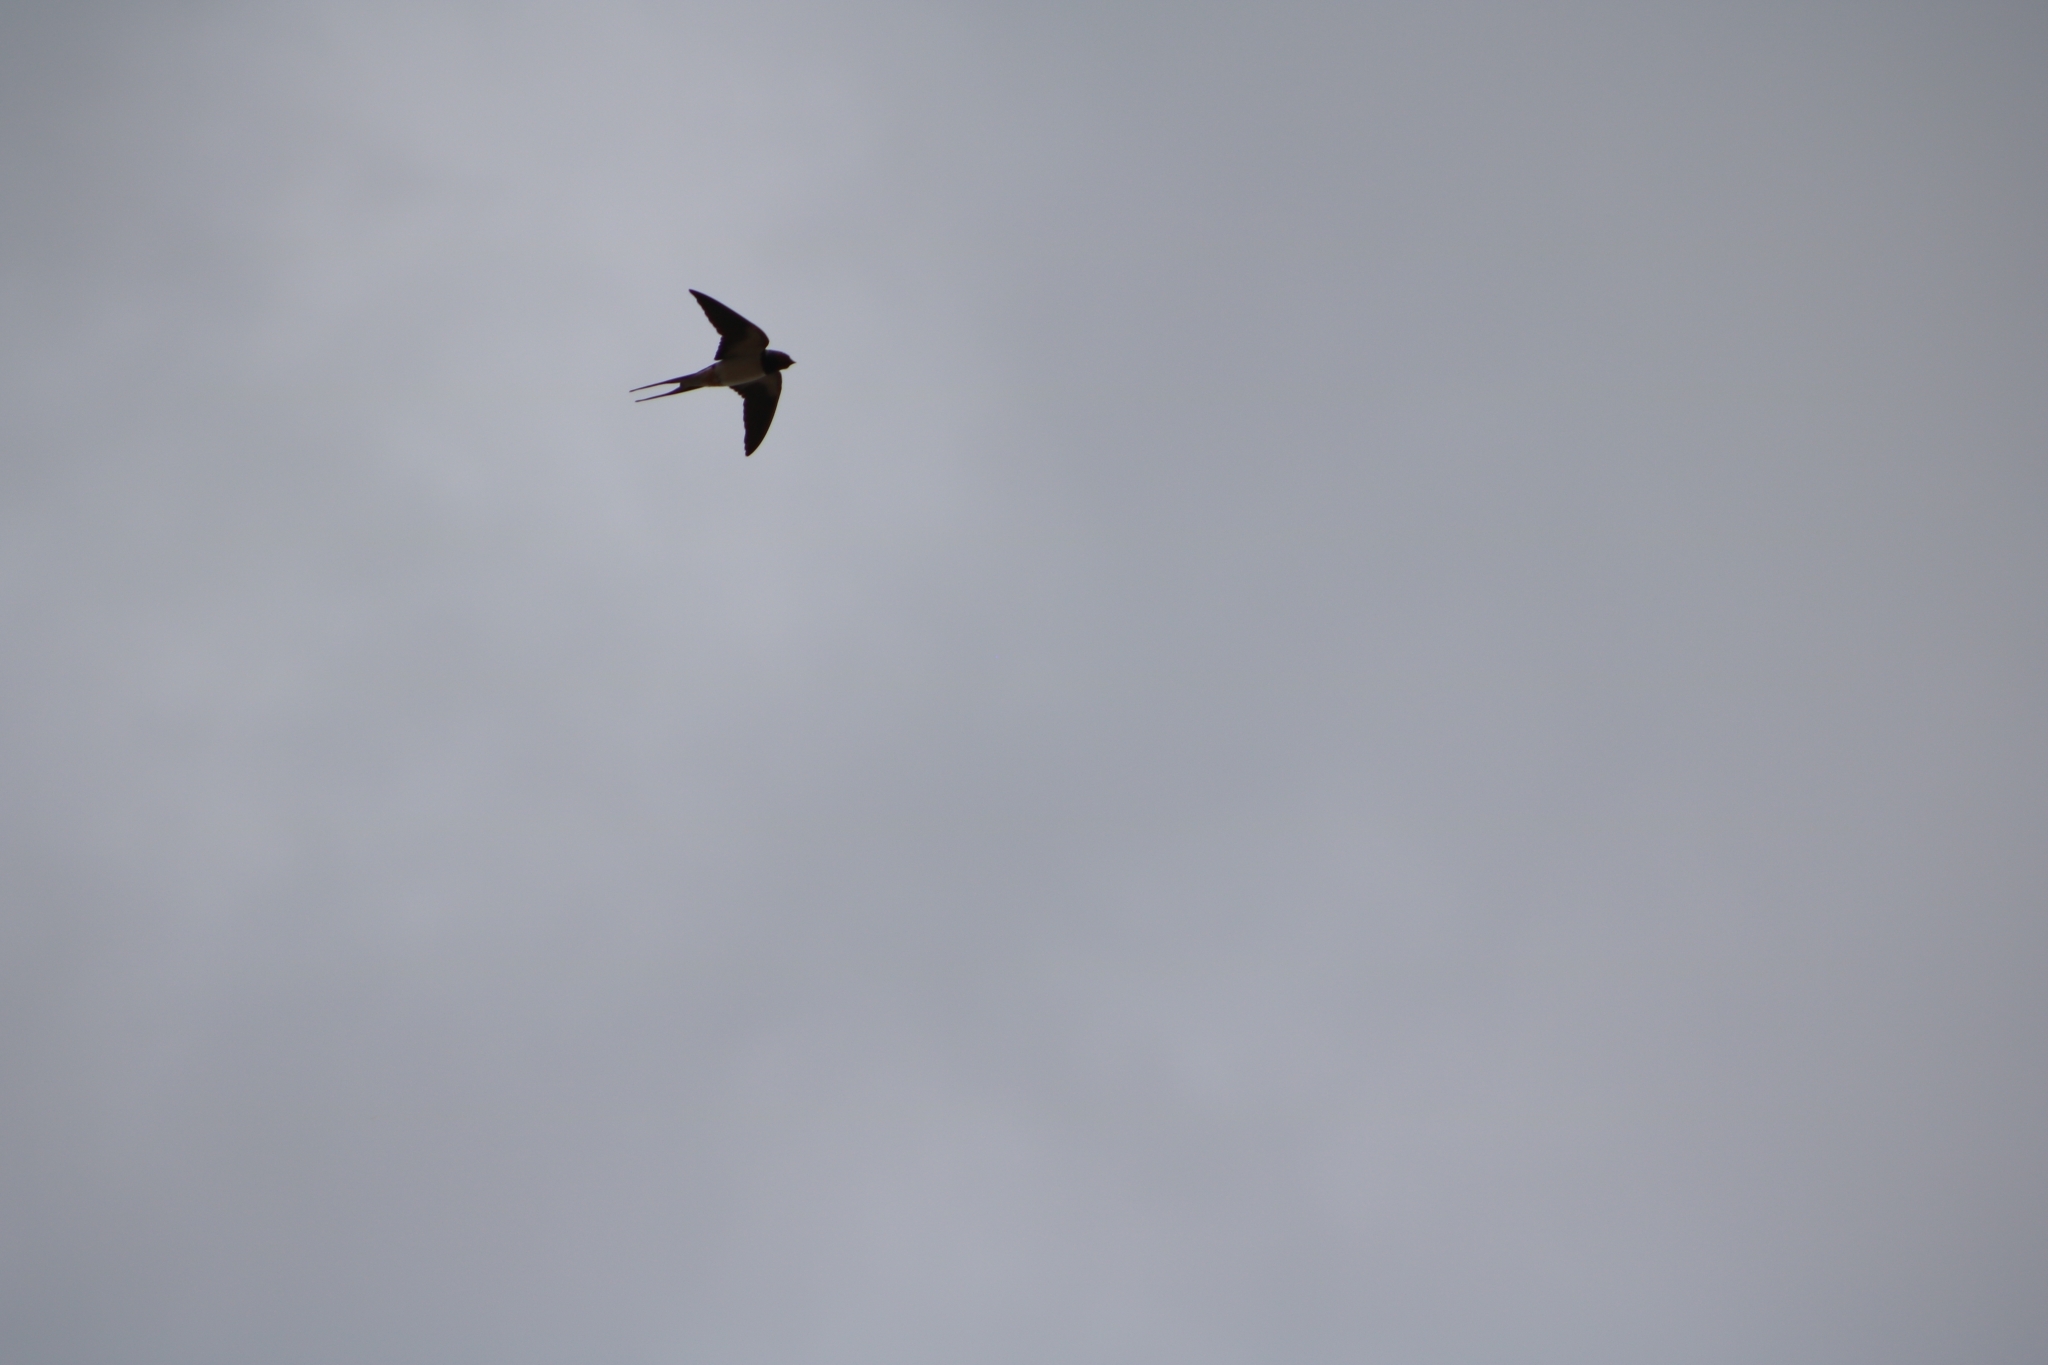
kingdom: Animalia
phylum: Chordata
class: Aves
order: Passeriformes
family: Hirundinidae
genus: Hirundo
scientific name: Hirundo rustica
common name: Barn swallow
